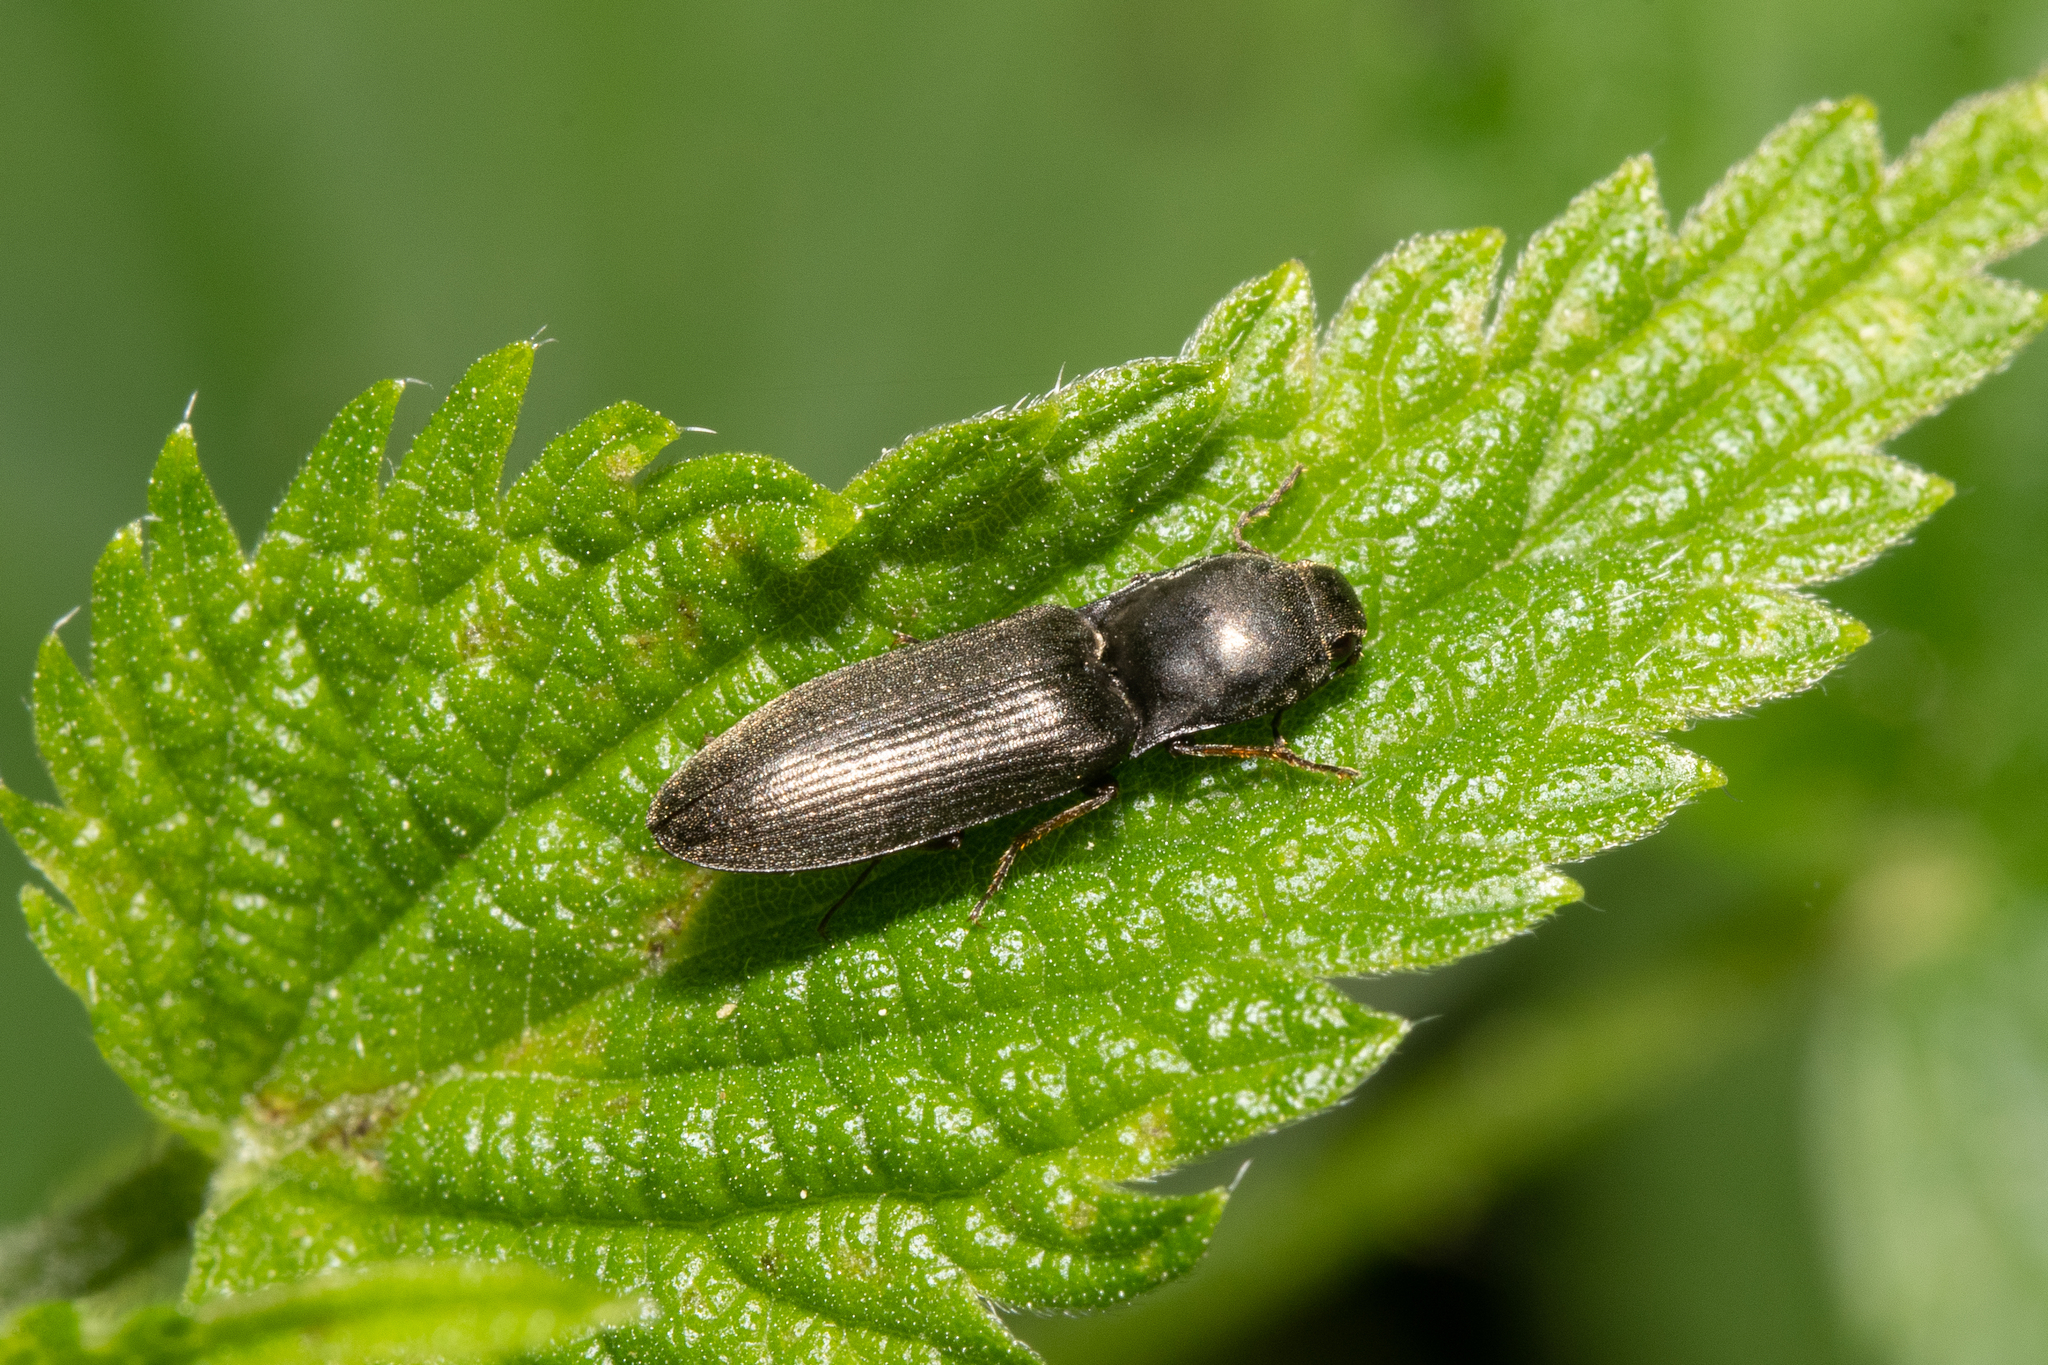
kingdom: Animalia
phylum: Arthropoda
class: Insecta
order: Coleoptera
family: Elateridae
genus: Aplotarsus
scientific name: Aplotarsus incanus
